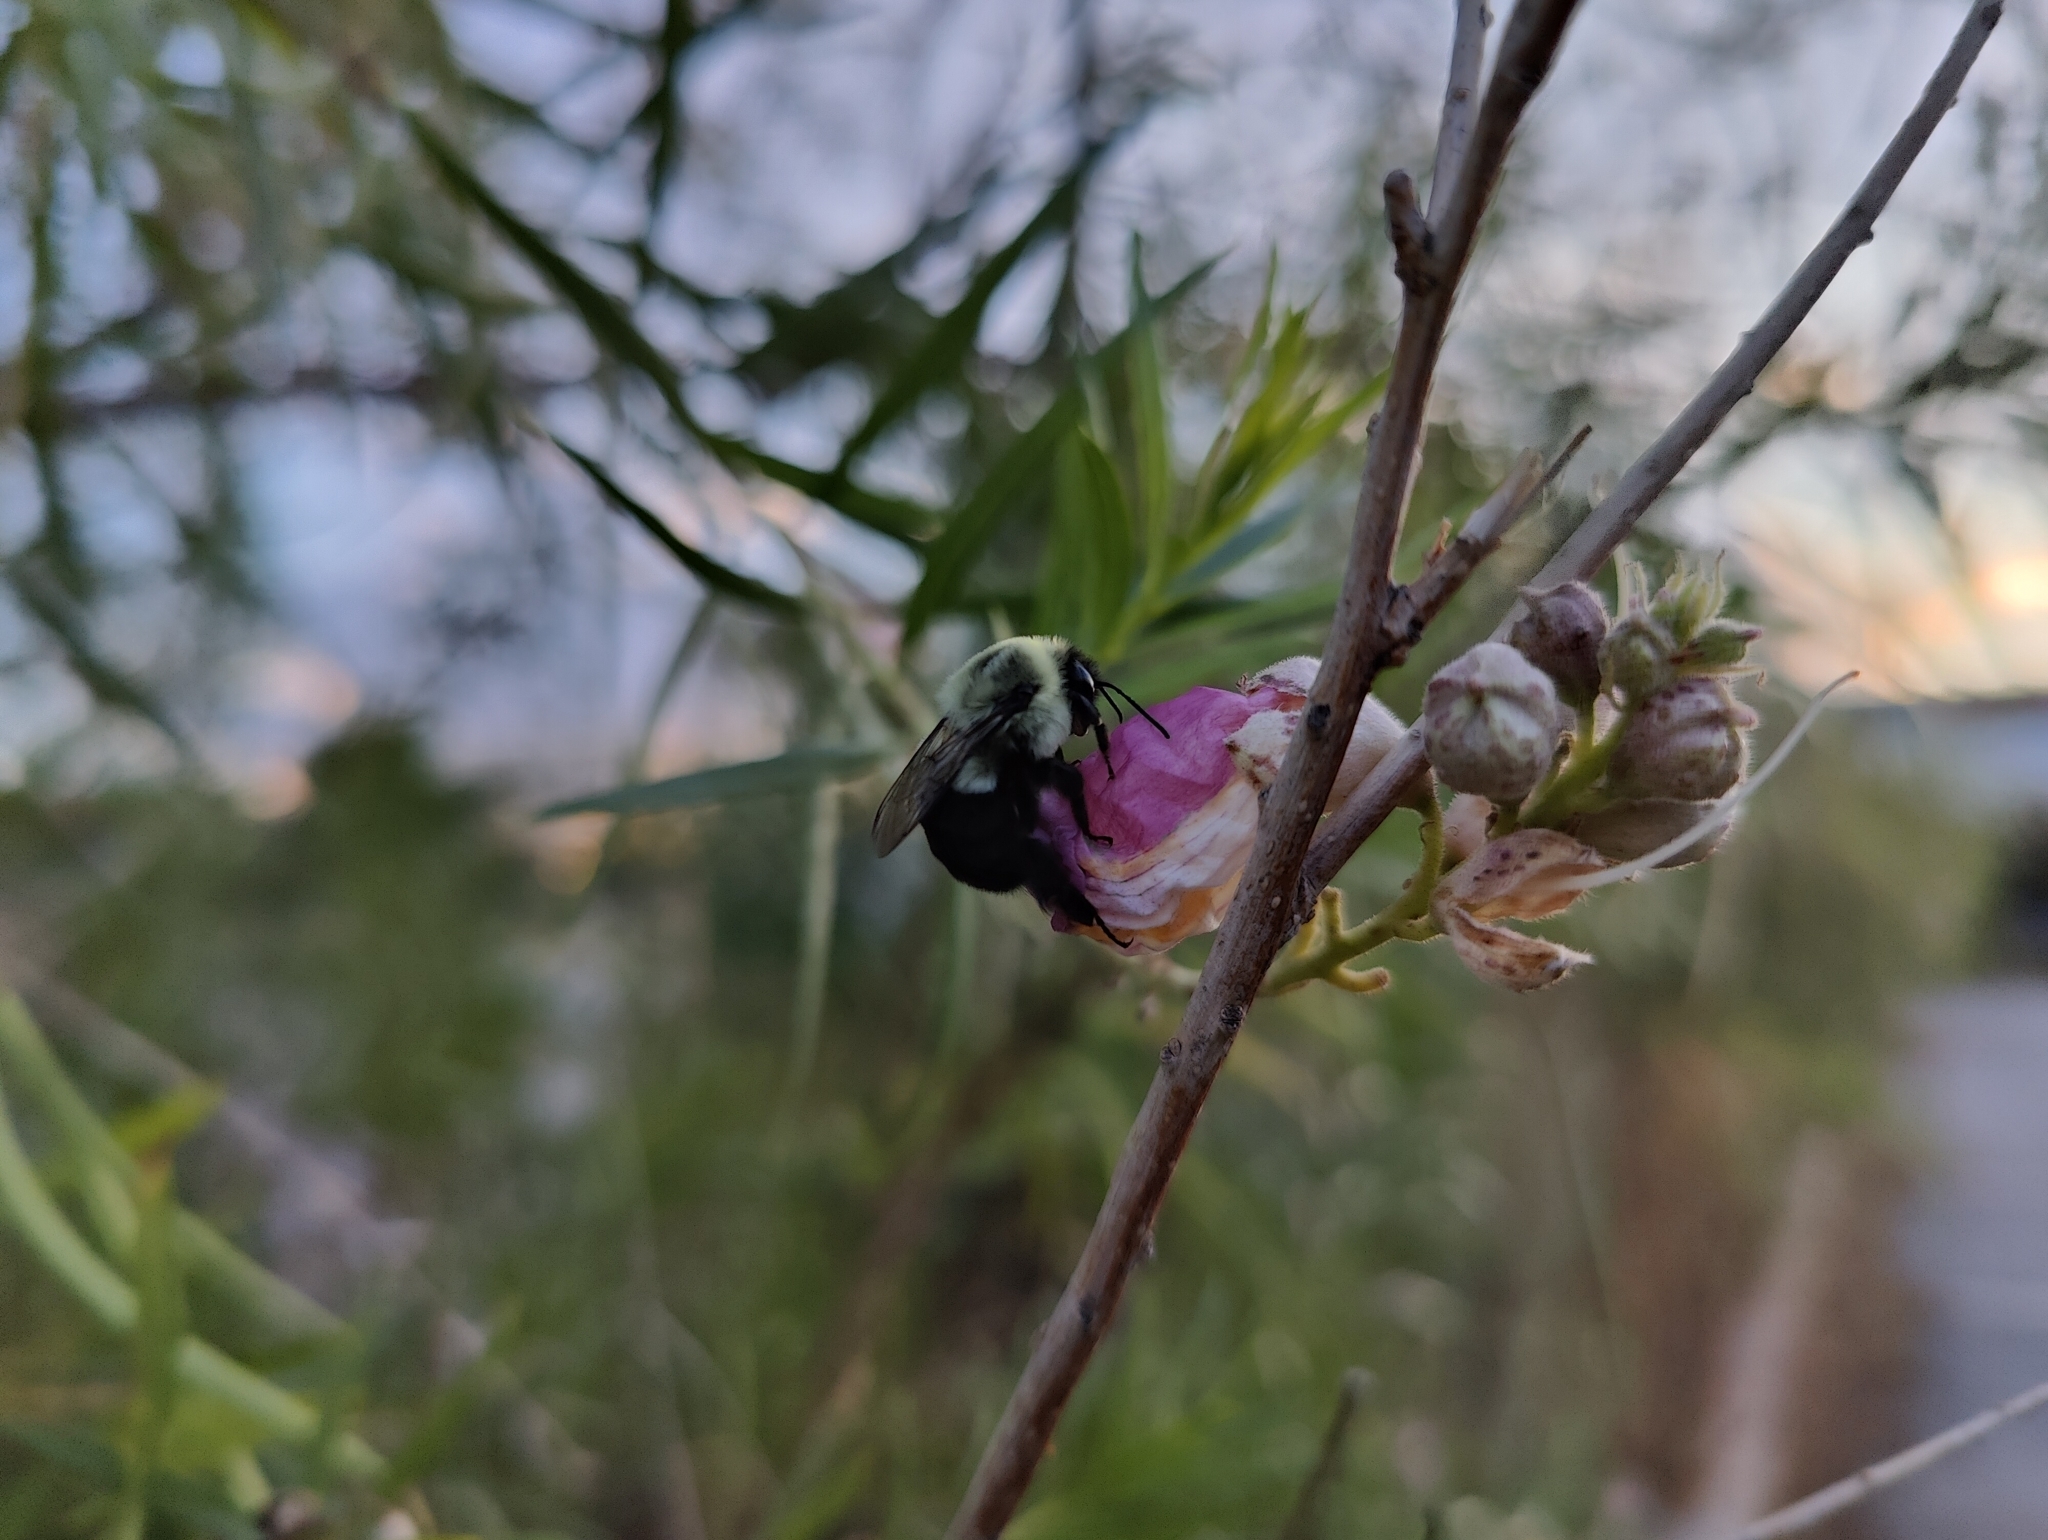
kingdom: Animalia
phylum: Arthropoda
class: Insecta
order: Hymenoptera
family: Apidae
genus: Bombus
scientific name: Bombus impatiens
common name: Common eastern bumble bee
